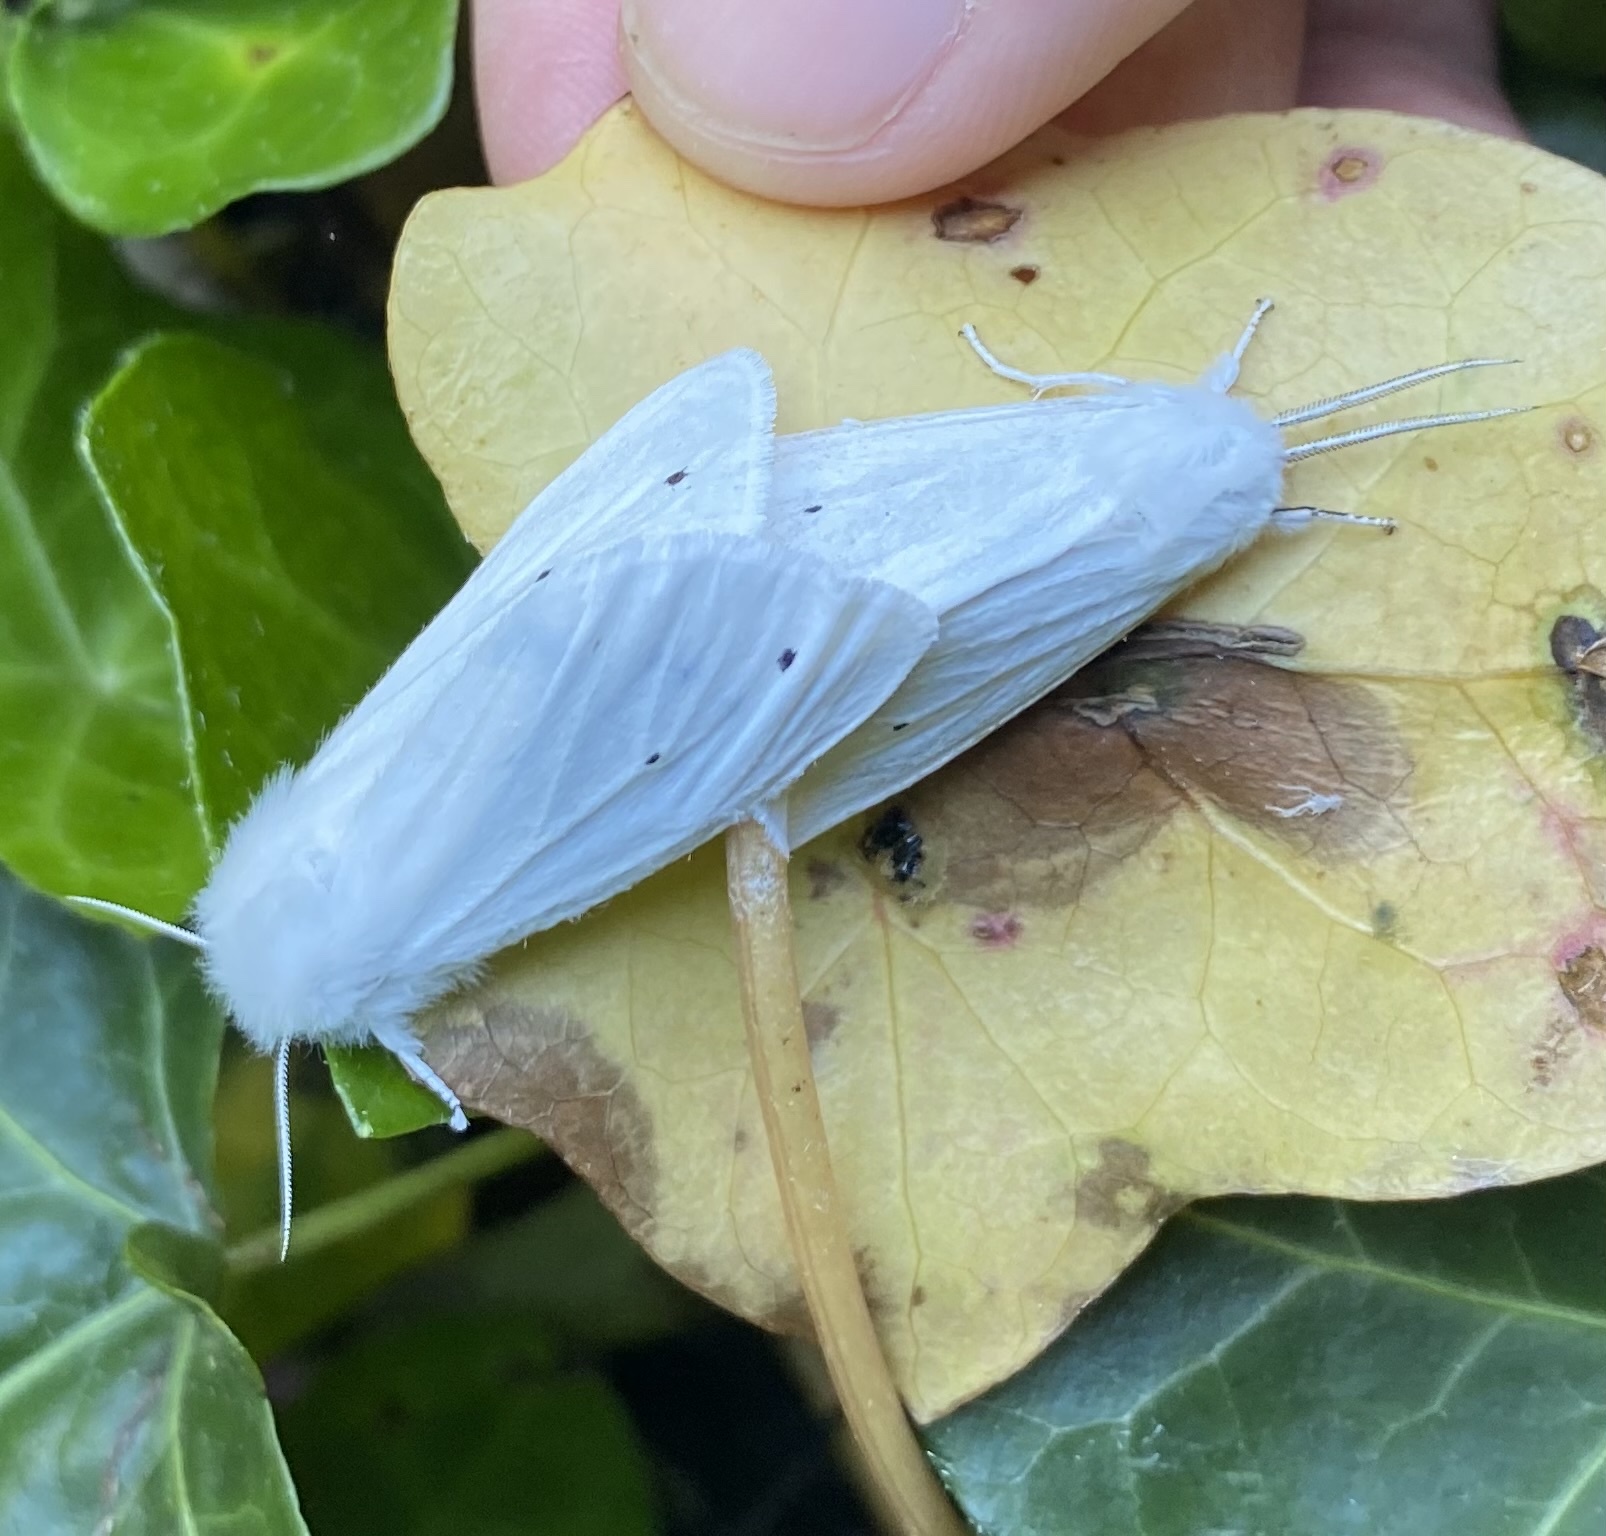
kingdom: Animalia
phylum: Arthropoda
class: Insecta
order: Lepidoptera
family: Erebidae
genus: Spilosoma
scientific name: Spilosoma virginica
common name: Virginia tiger moth
